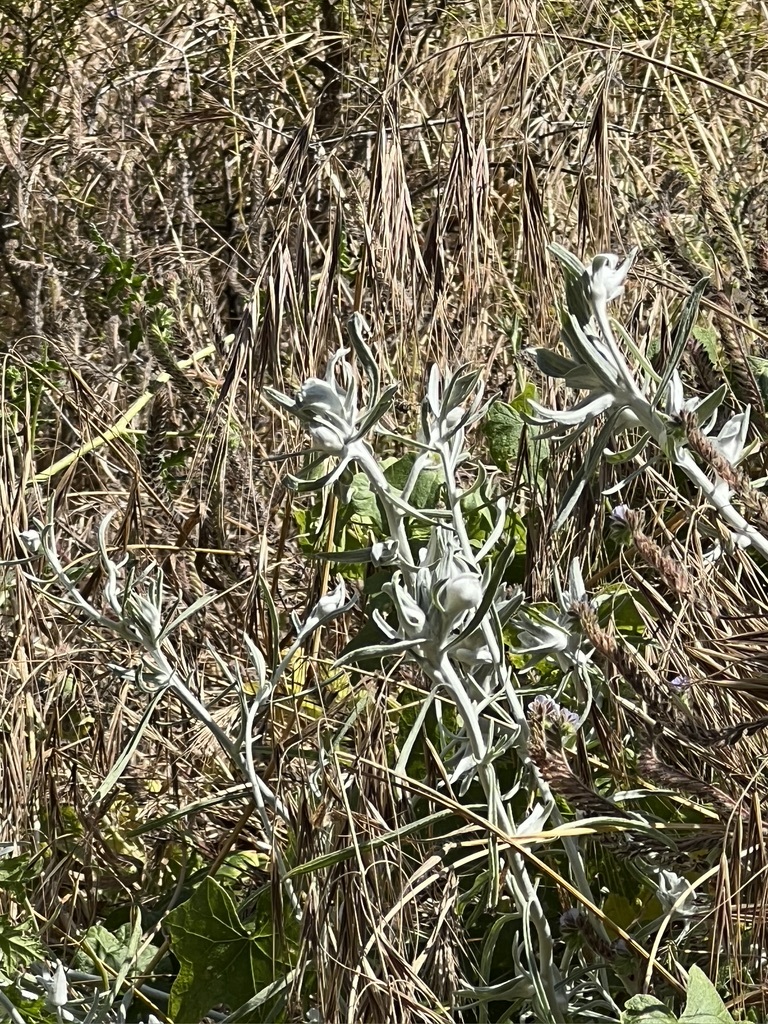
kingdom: Plantae
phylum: Tracheophyta
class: Magnoliopsida
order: Asterales
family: Asteraceae
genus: Tetradymia
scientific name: Tetradymia comosa
